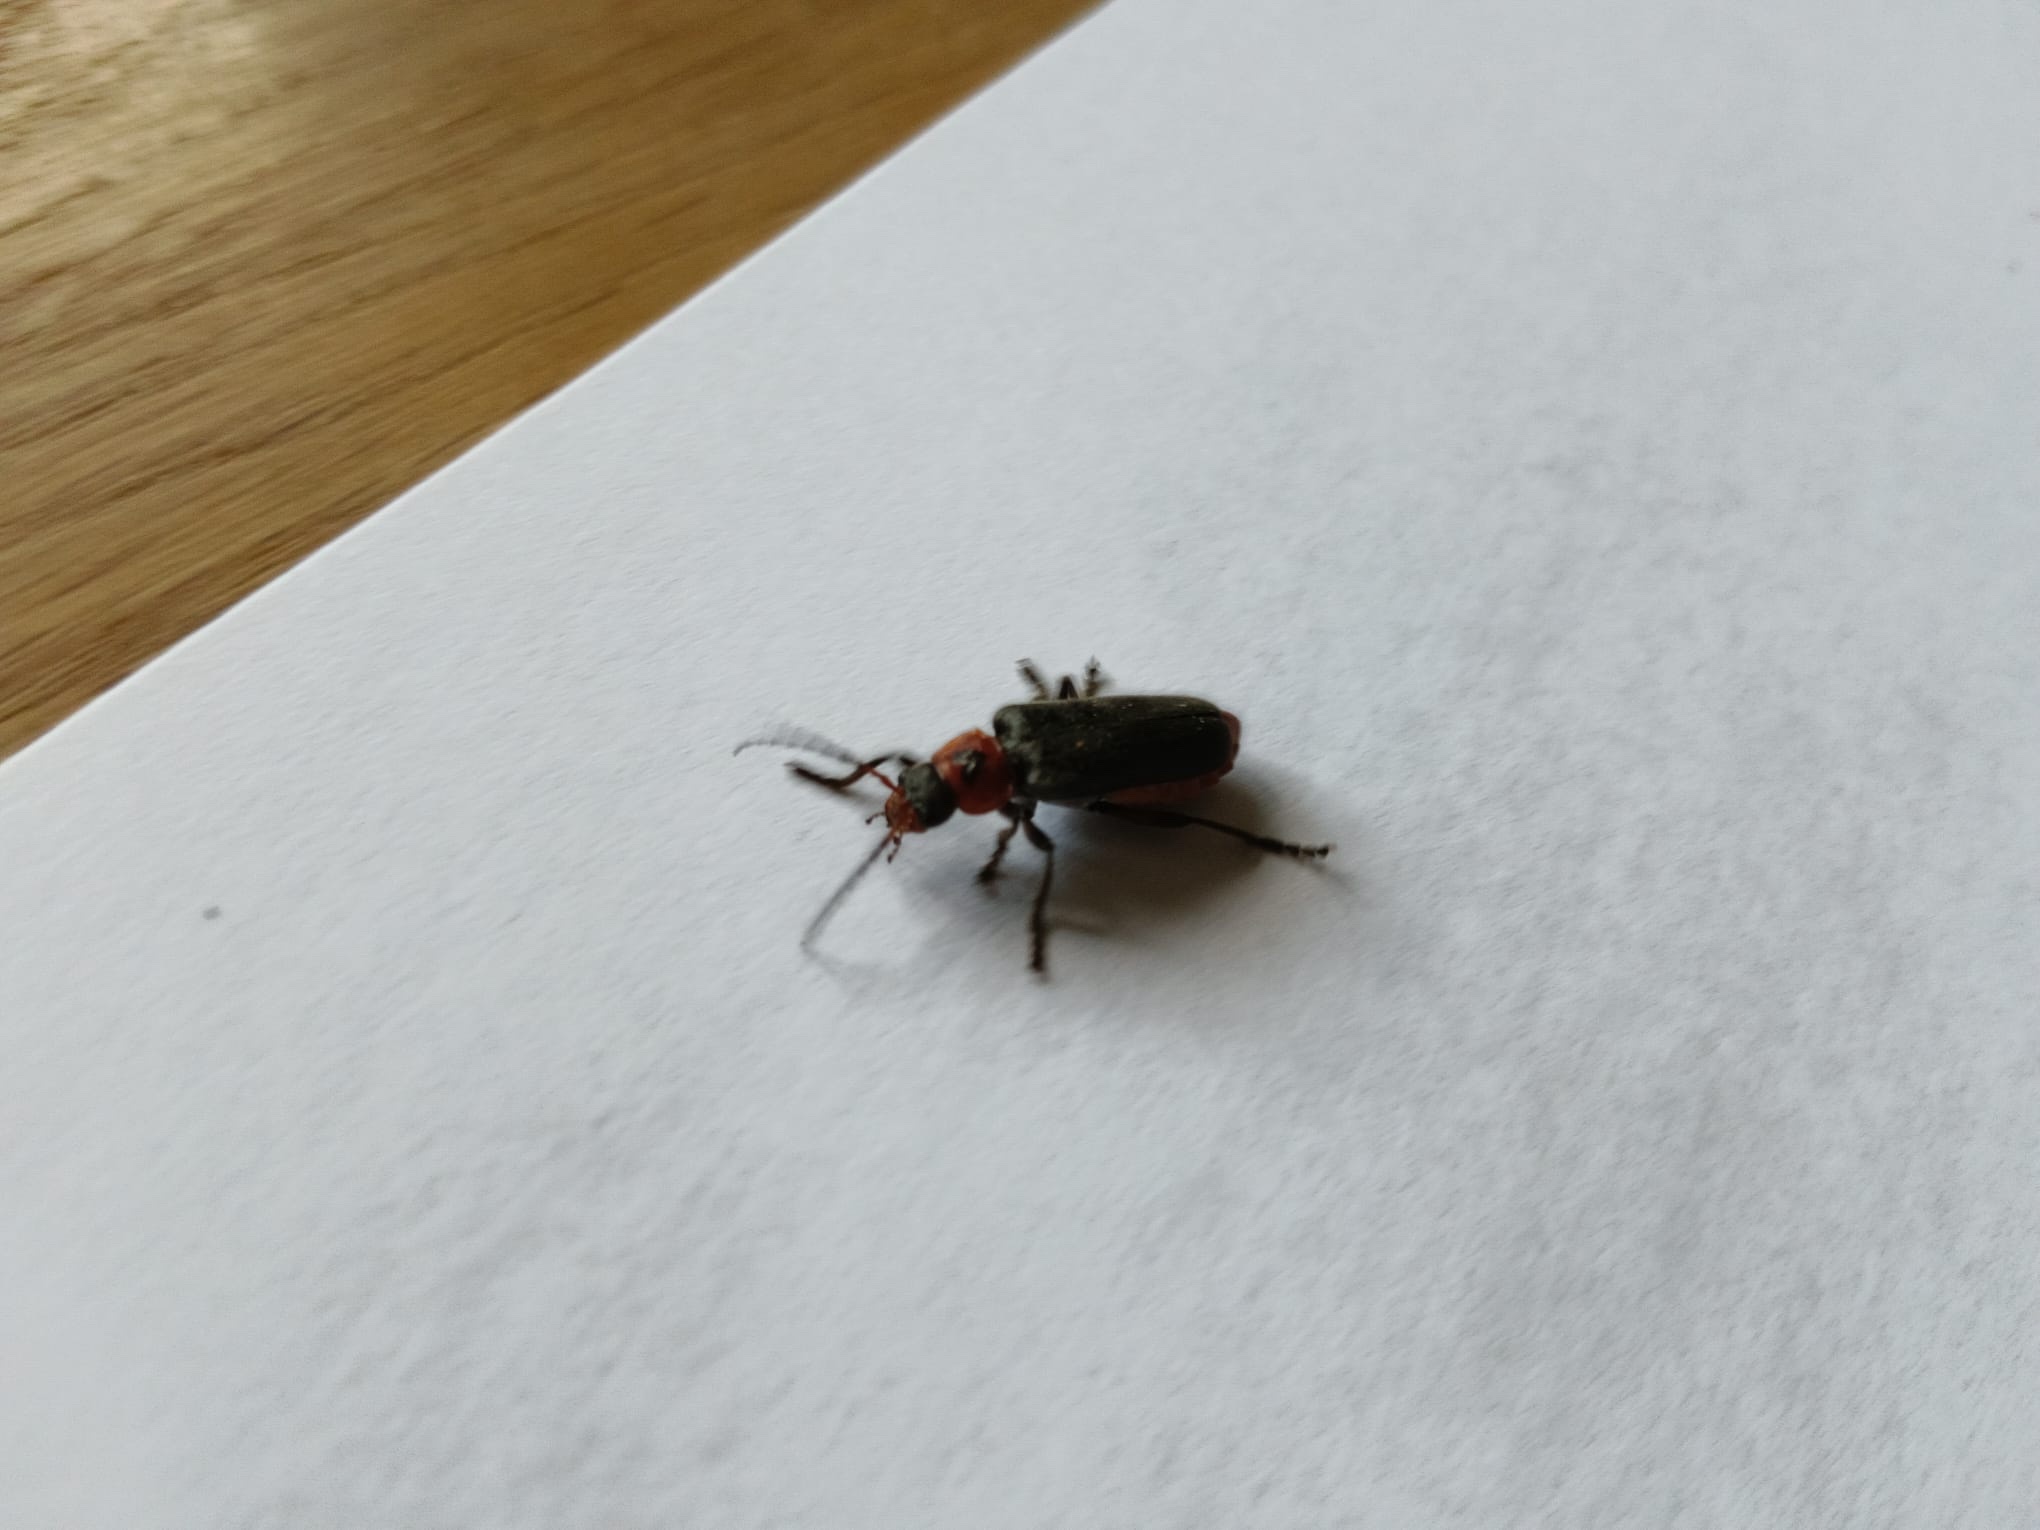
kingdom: Animalia
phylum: Arthropoda
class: Insecta
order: Coleoptera
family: Cantharidae
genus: Cantharis
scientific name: Cantharis rustica
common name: Soldier beetle
